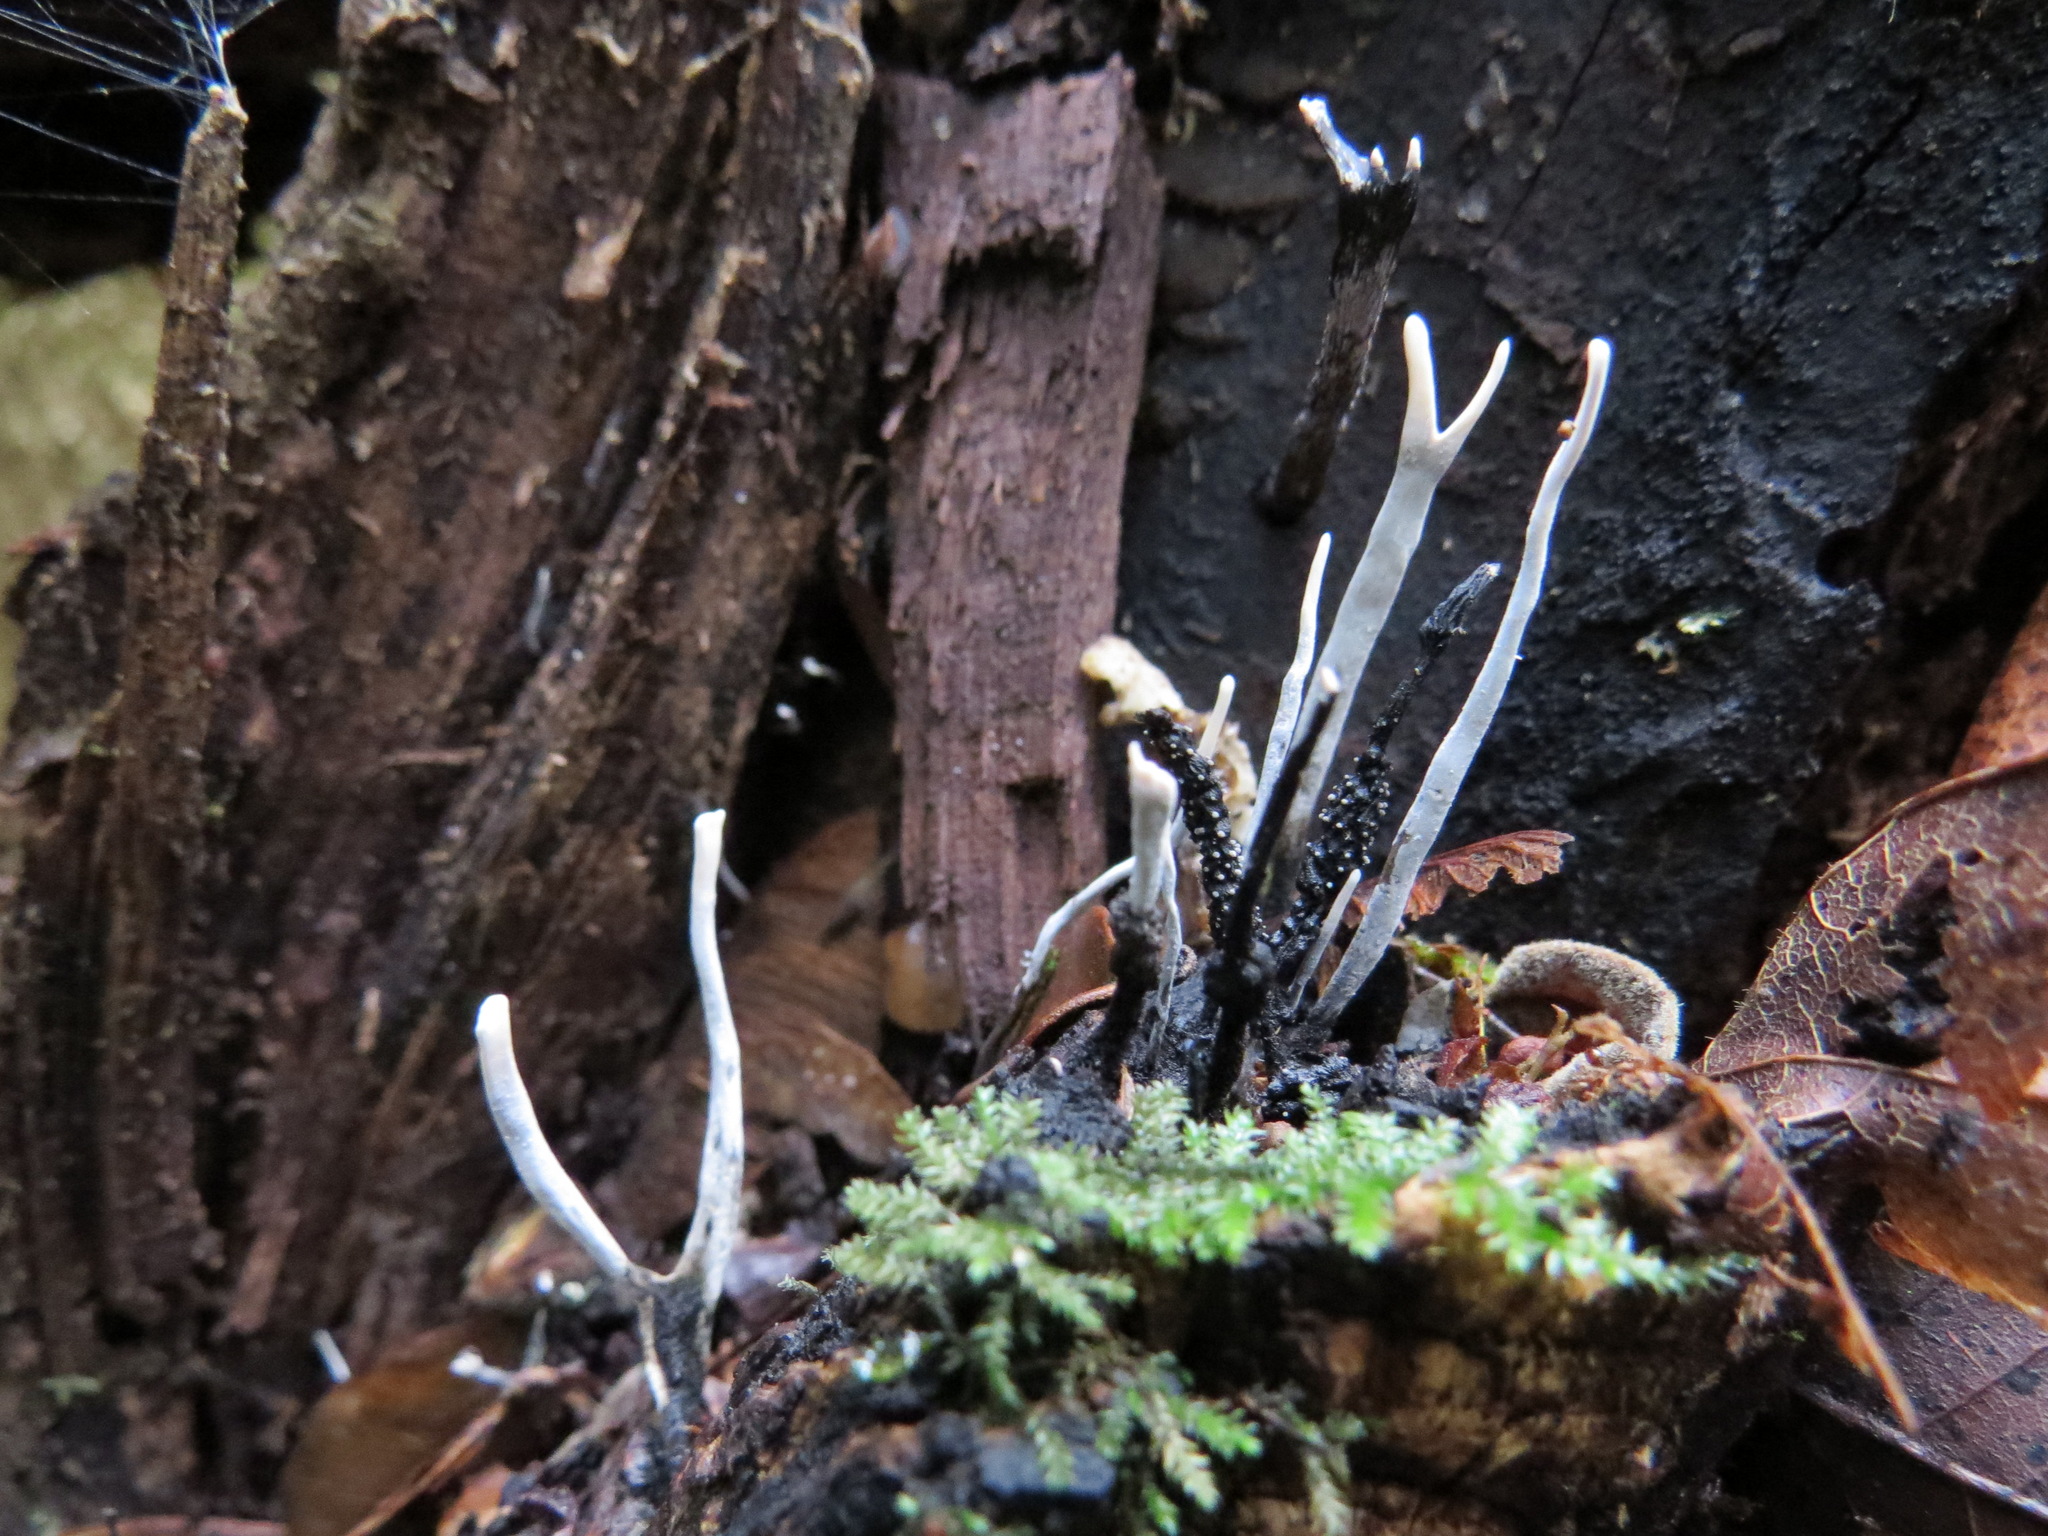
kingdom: Fungi
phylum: Ascomycota
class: Sordariomycetes
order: Xylariales
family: Xylariaceae
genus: Xylaria
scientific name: Xylaria hypoxylon
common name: Candle-snuff fungus
